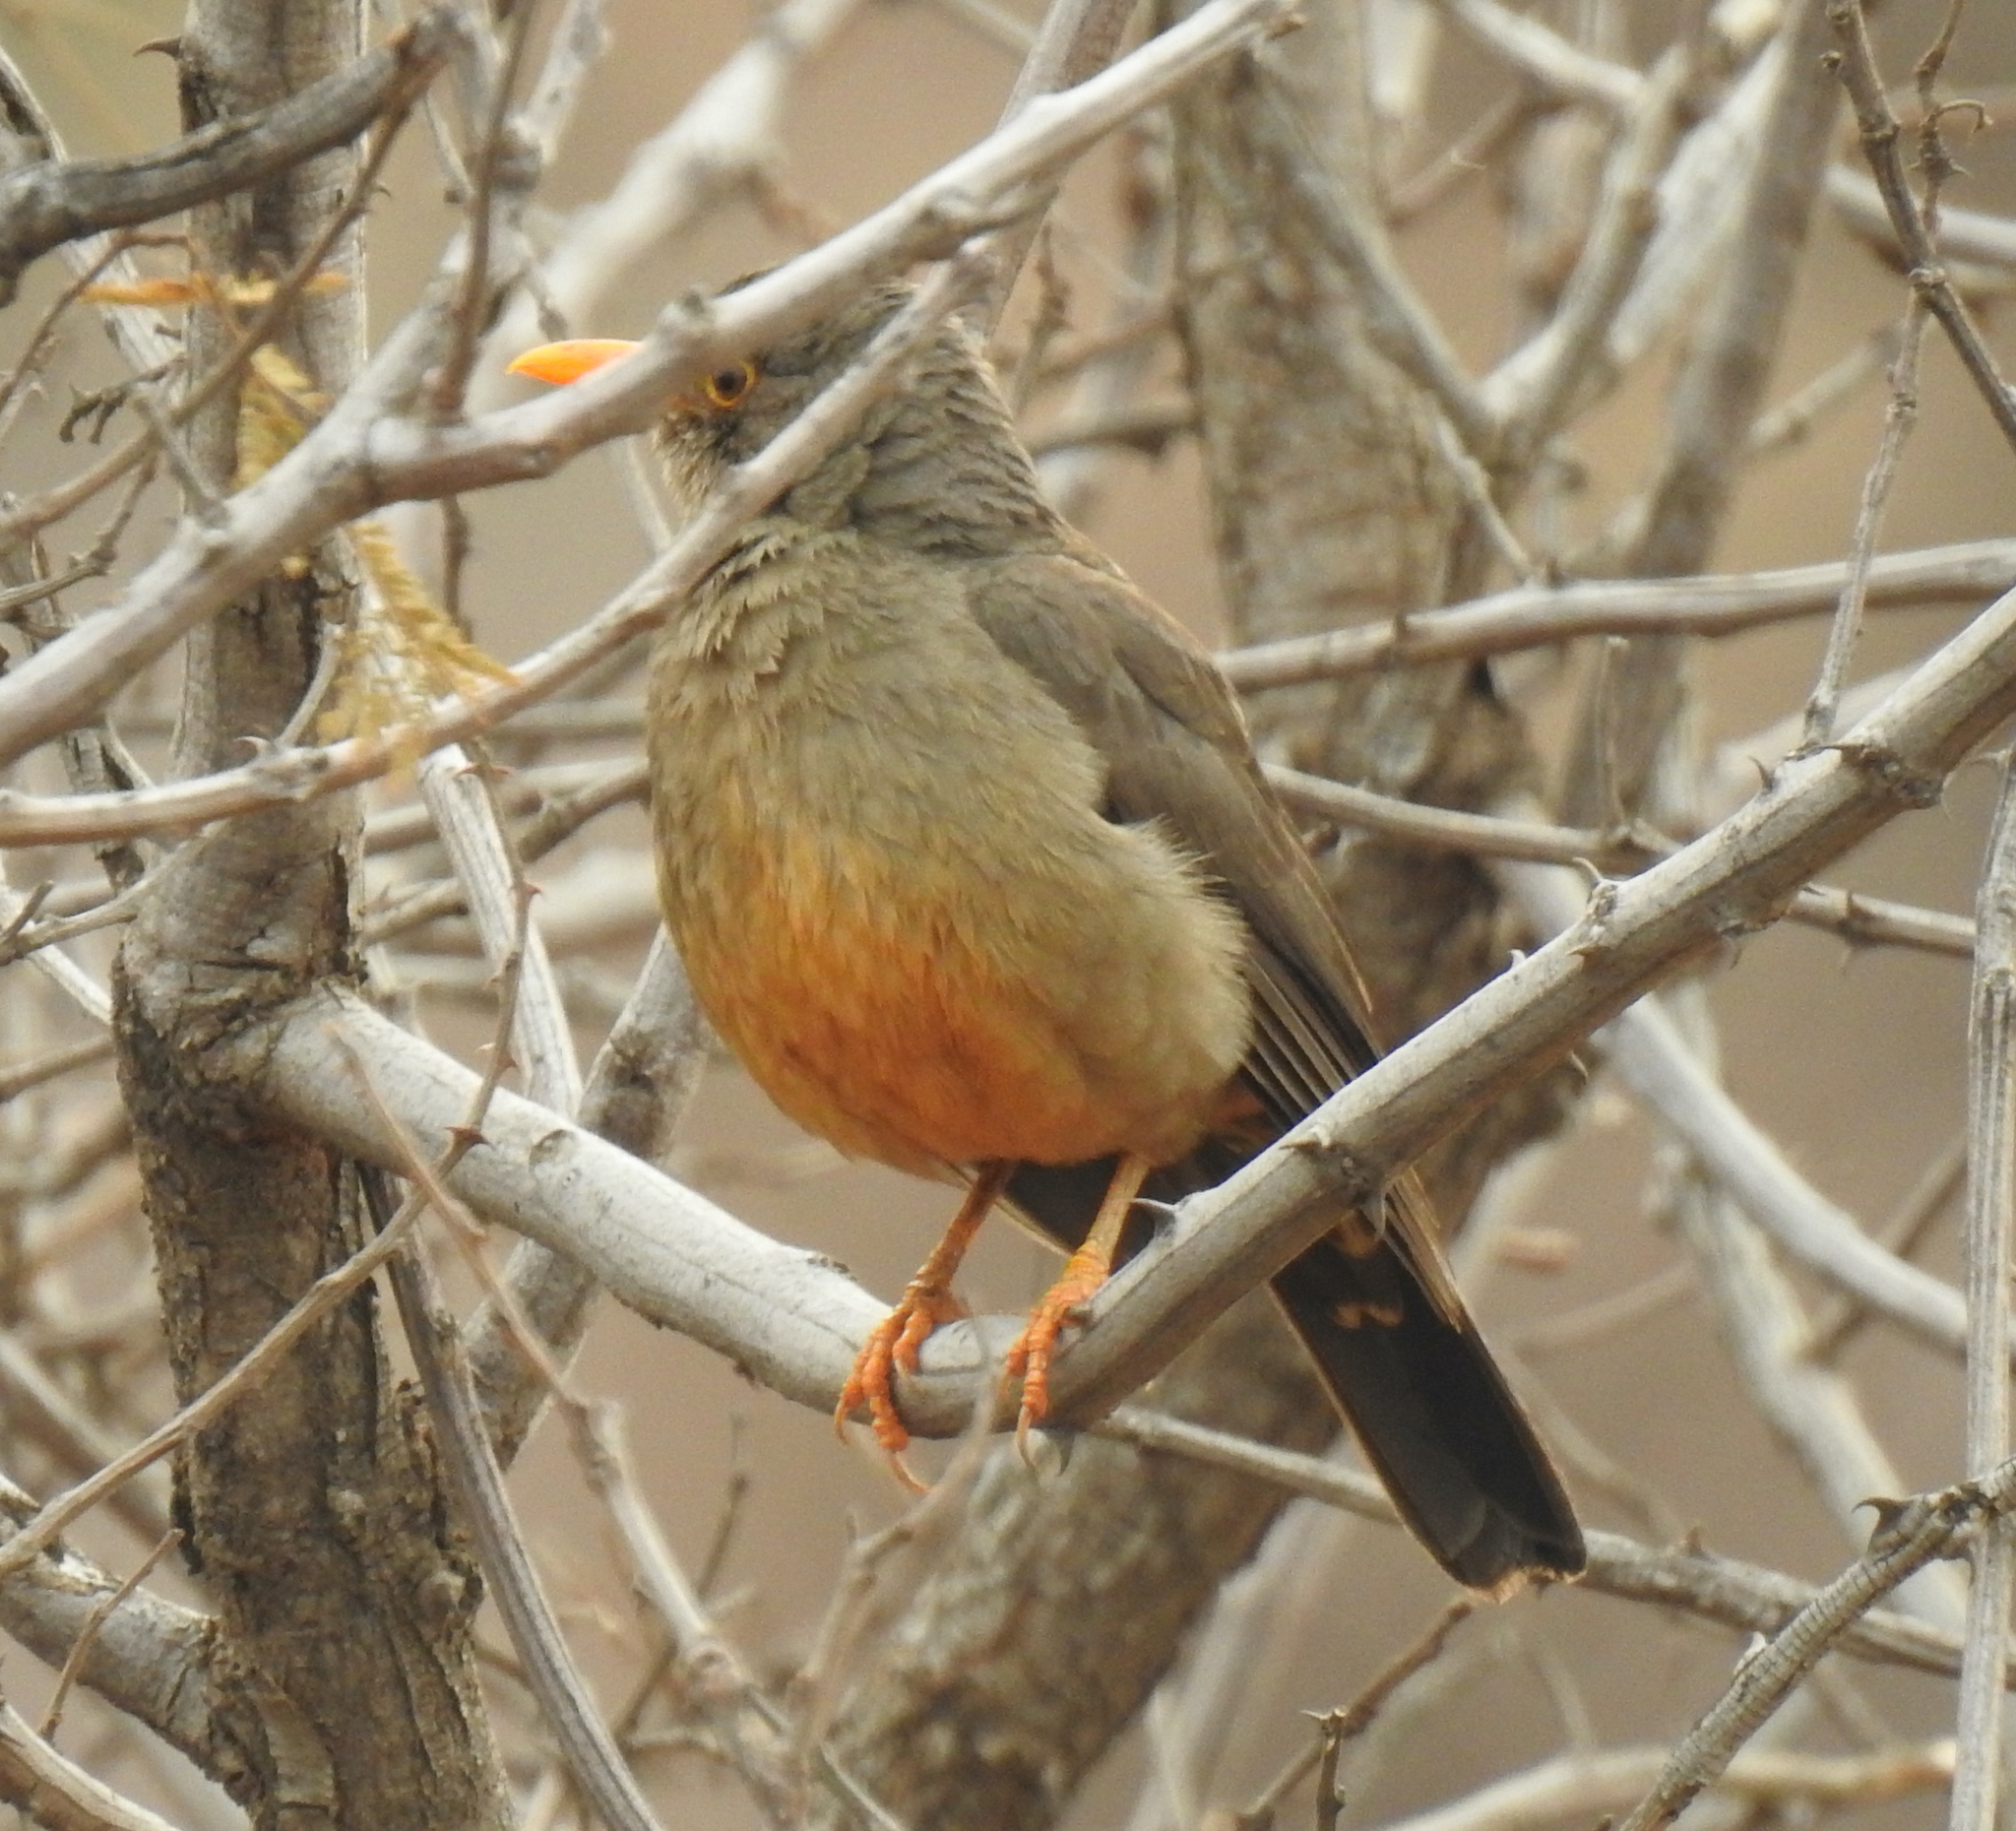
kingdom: Animalia
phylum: Chordata
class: Aves
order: Passeriformes
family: Turdidae
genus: Turdus
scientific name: Turdus smithi
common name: Karoo thrush
